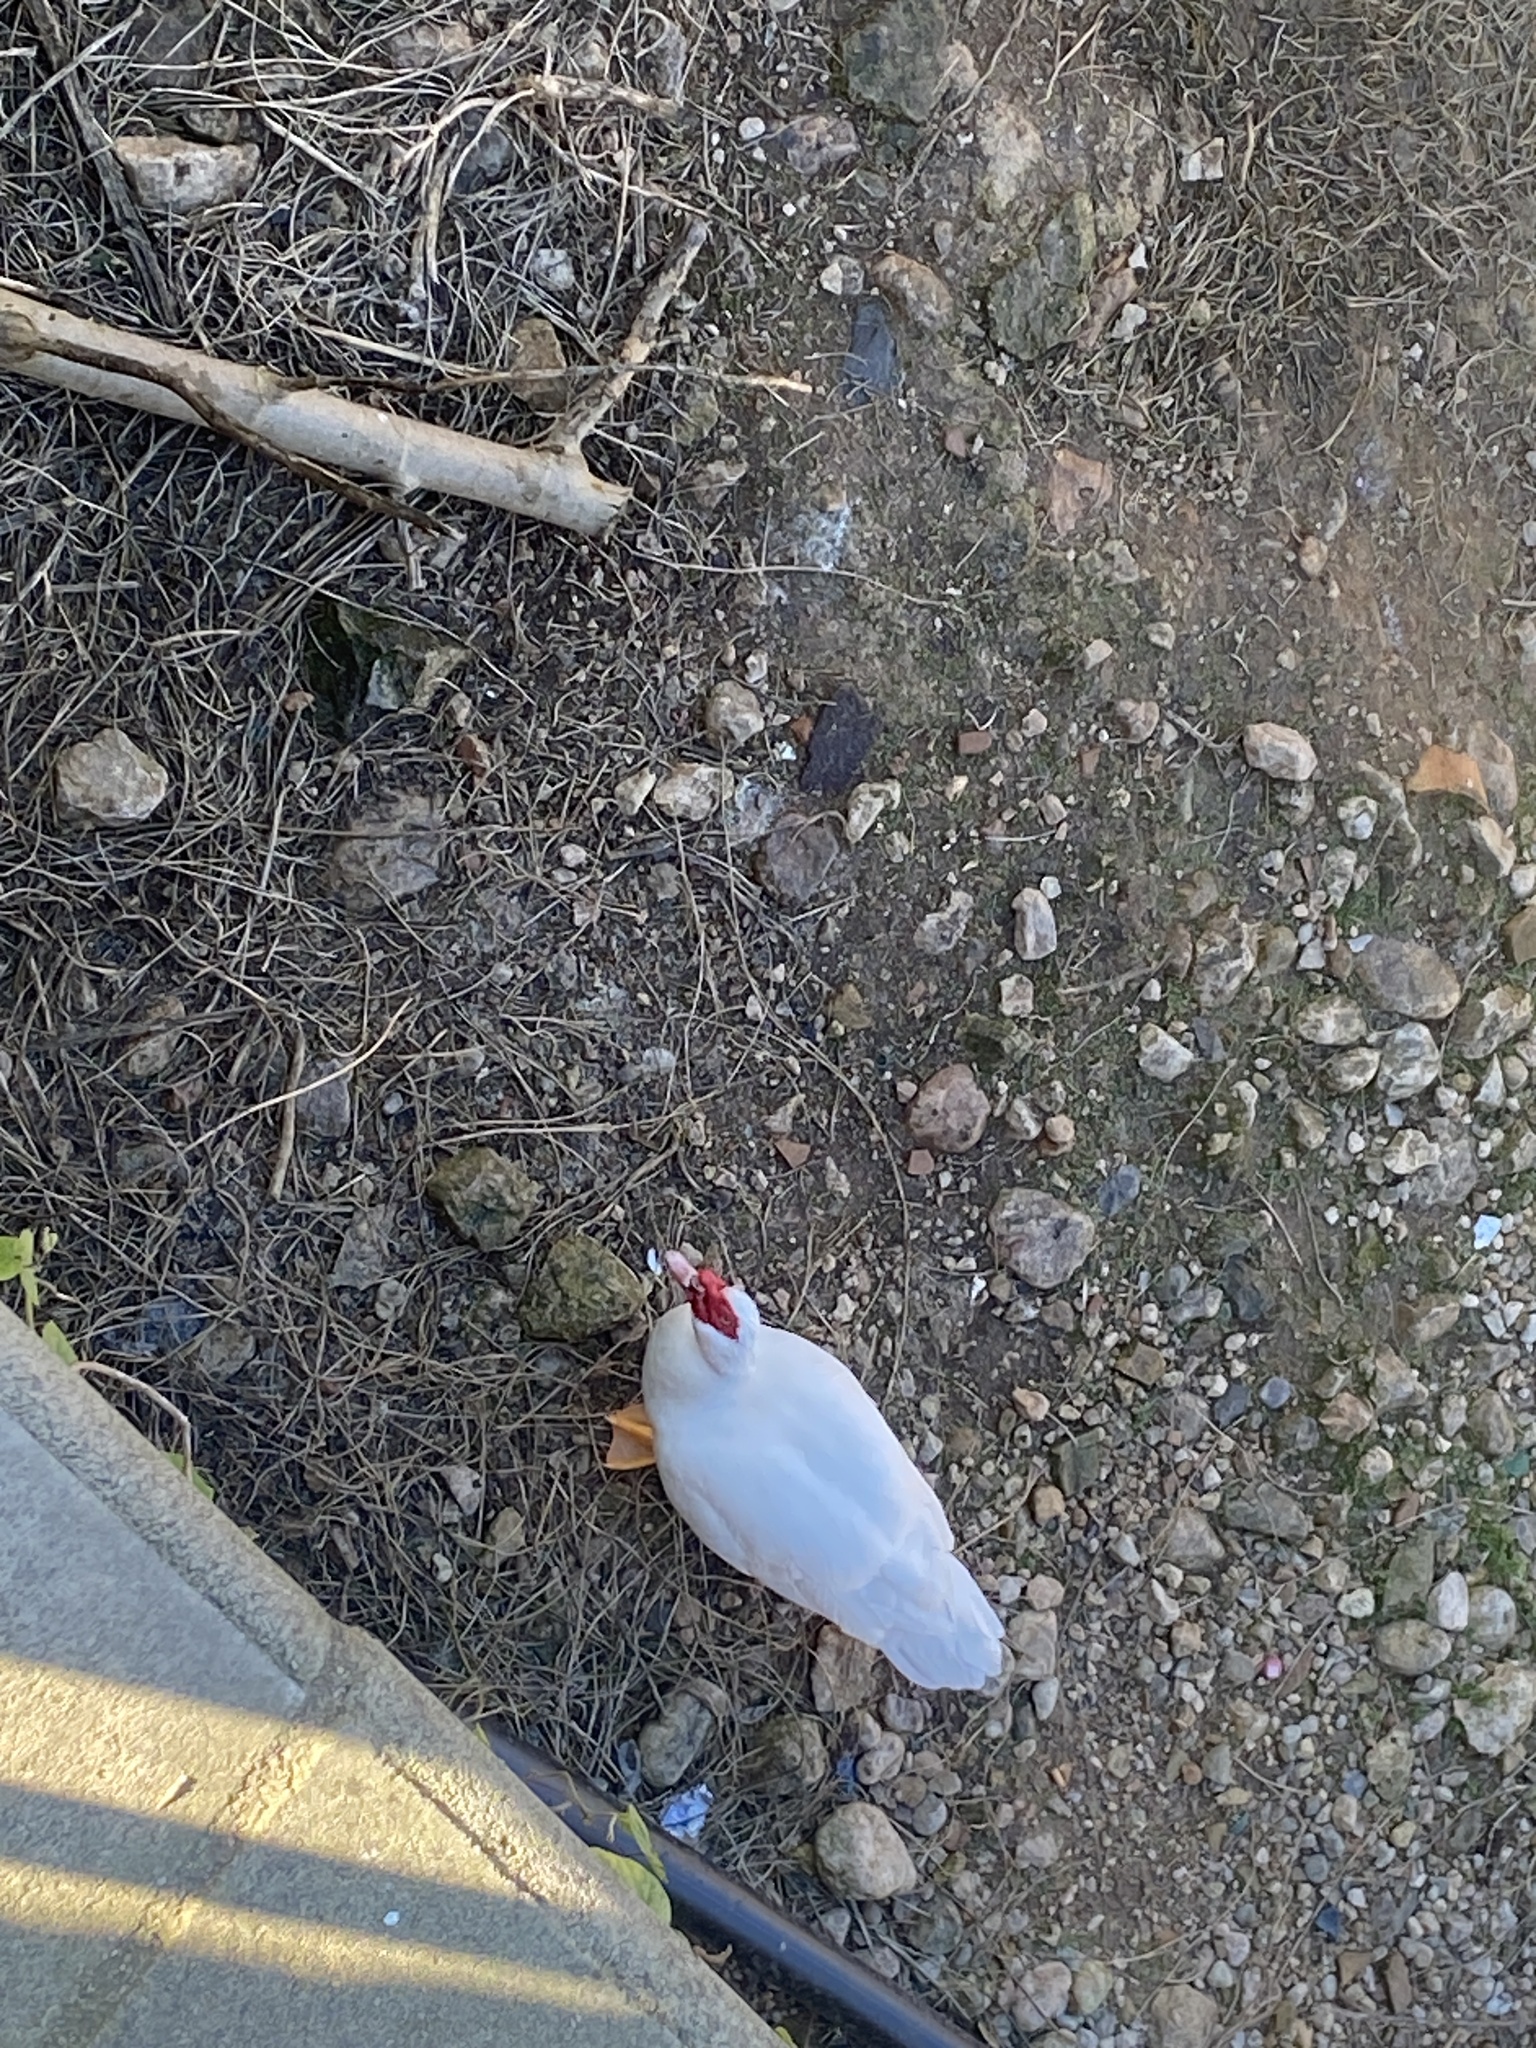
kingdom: Animalia
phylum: Chordata
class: Aves
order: Anseriformes
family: Anatidae
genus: Cairina
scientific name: Cairina moschata
